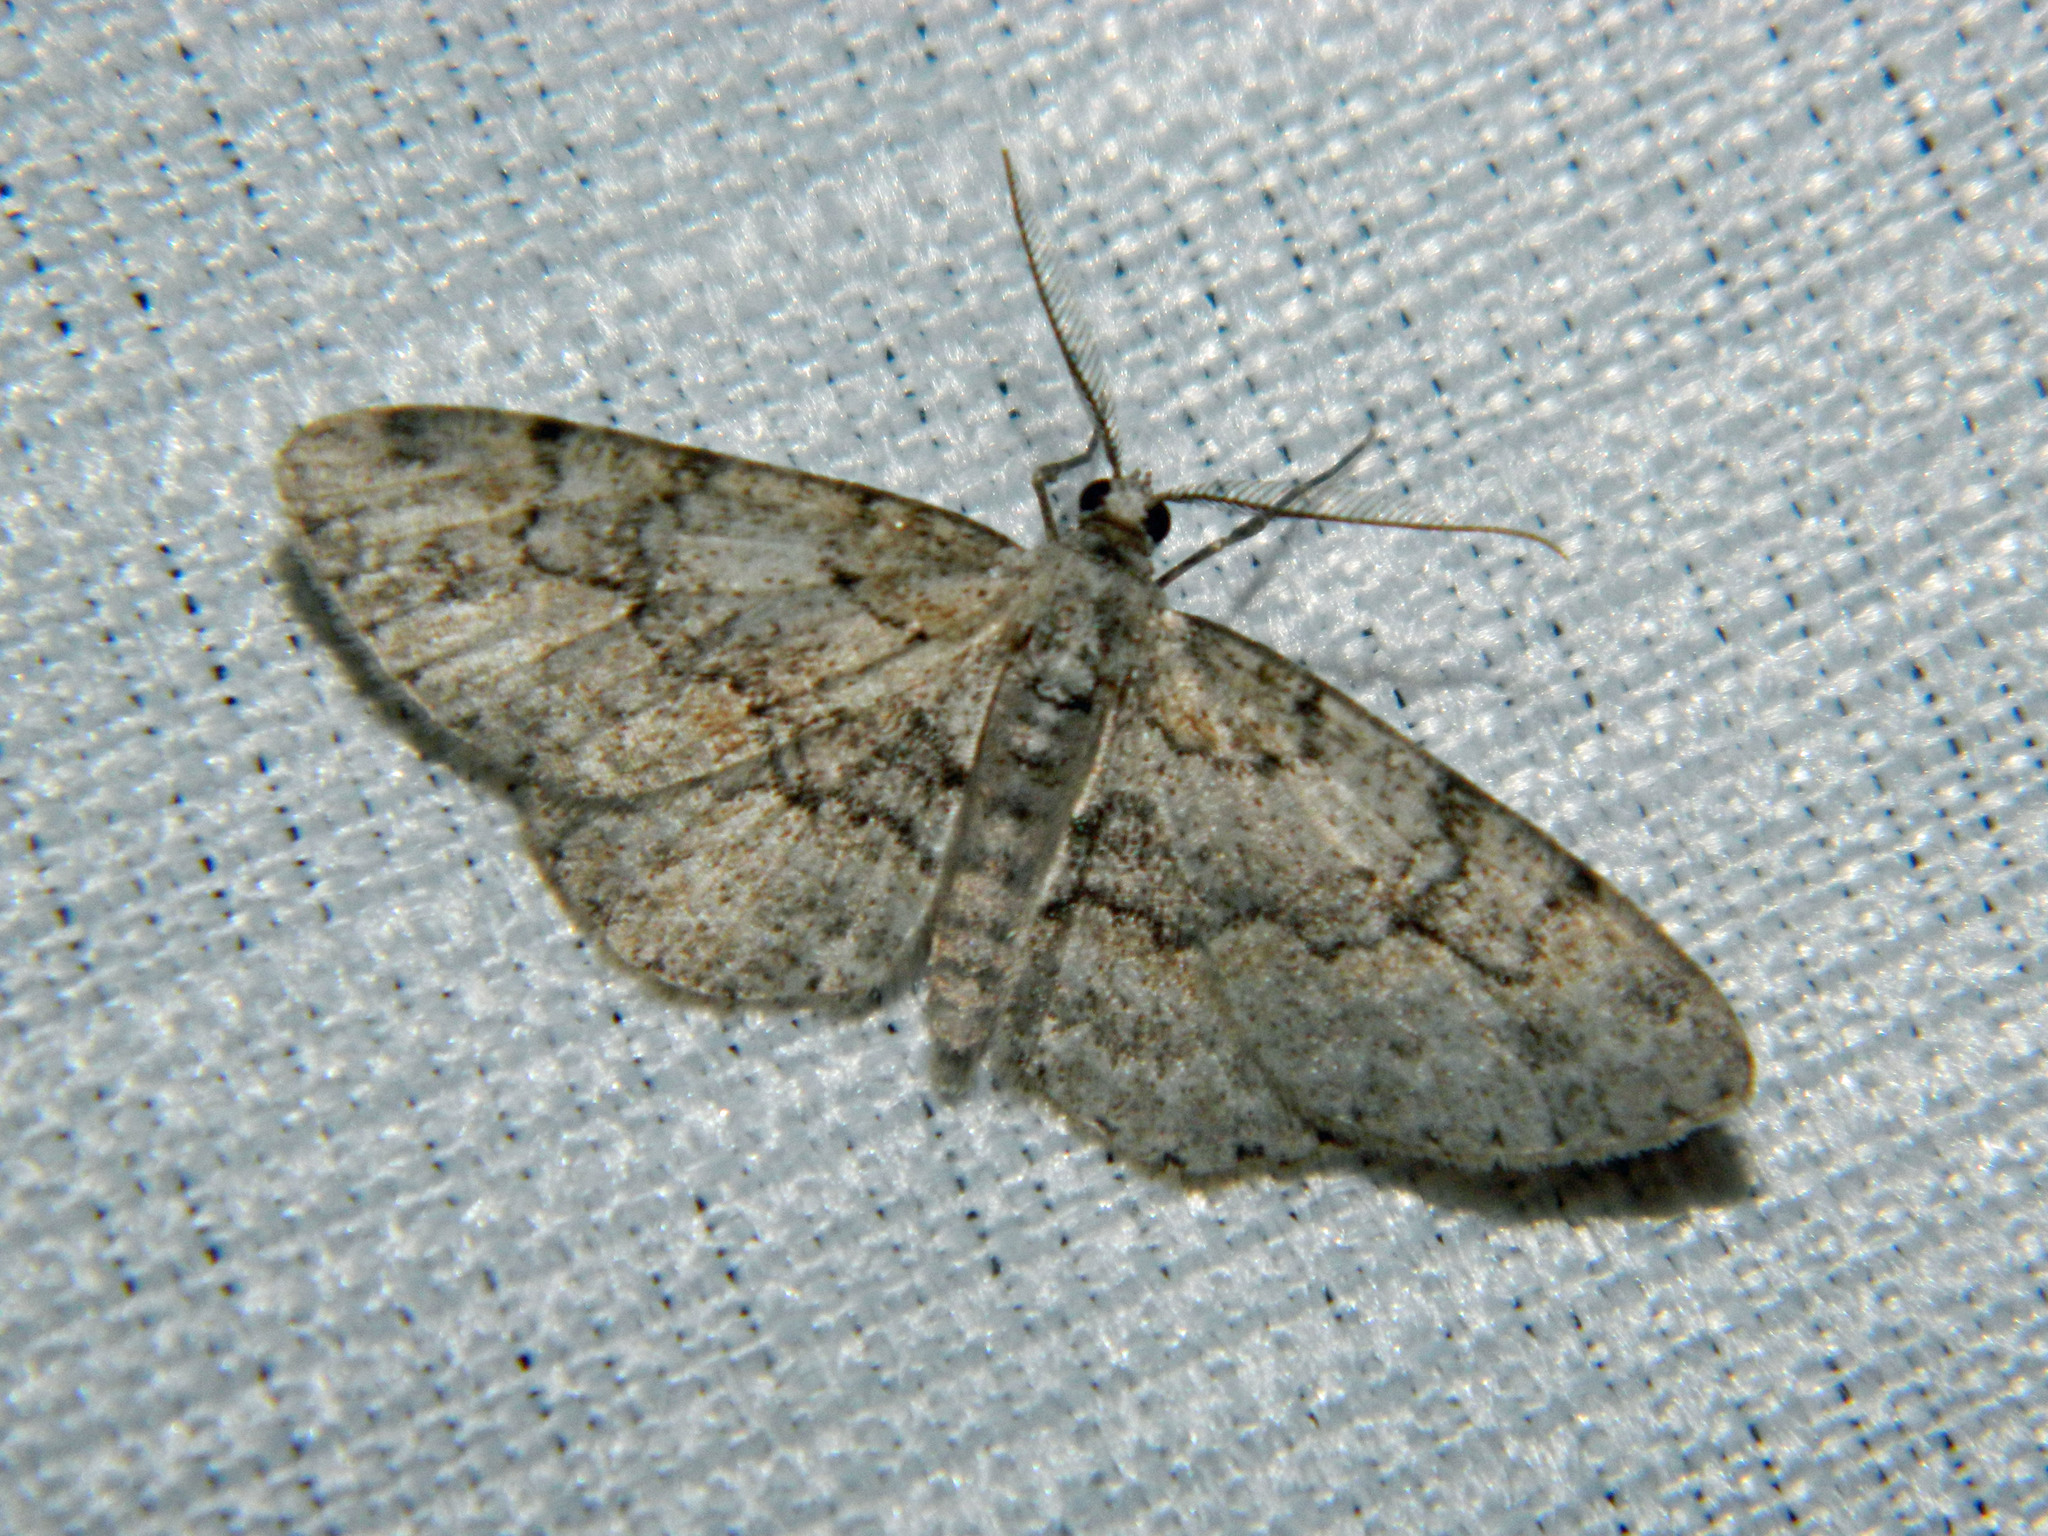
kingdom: Animalia
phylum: Arthropoda
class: Insecta
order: Lepidoptera
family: Geometridae
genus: Iridopsis
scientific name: Iridopsis ephyraria
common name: Pale-winged gray
